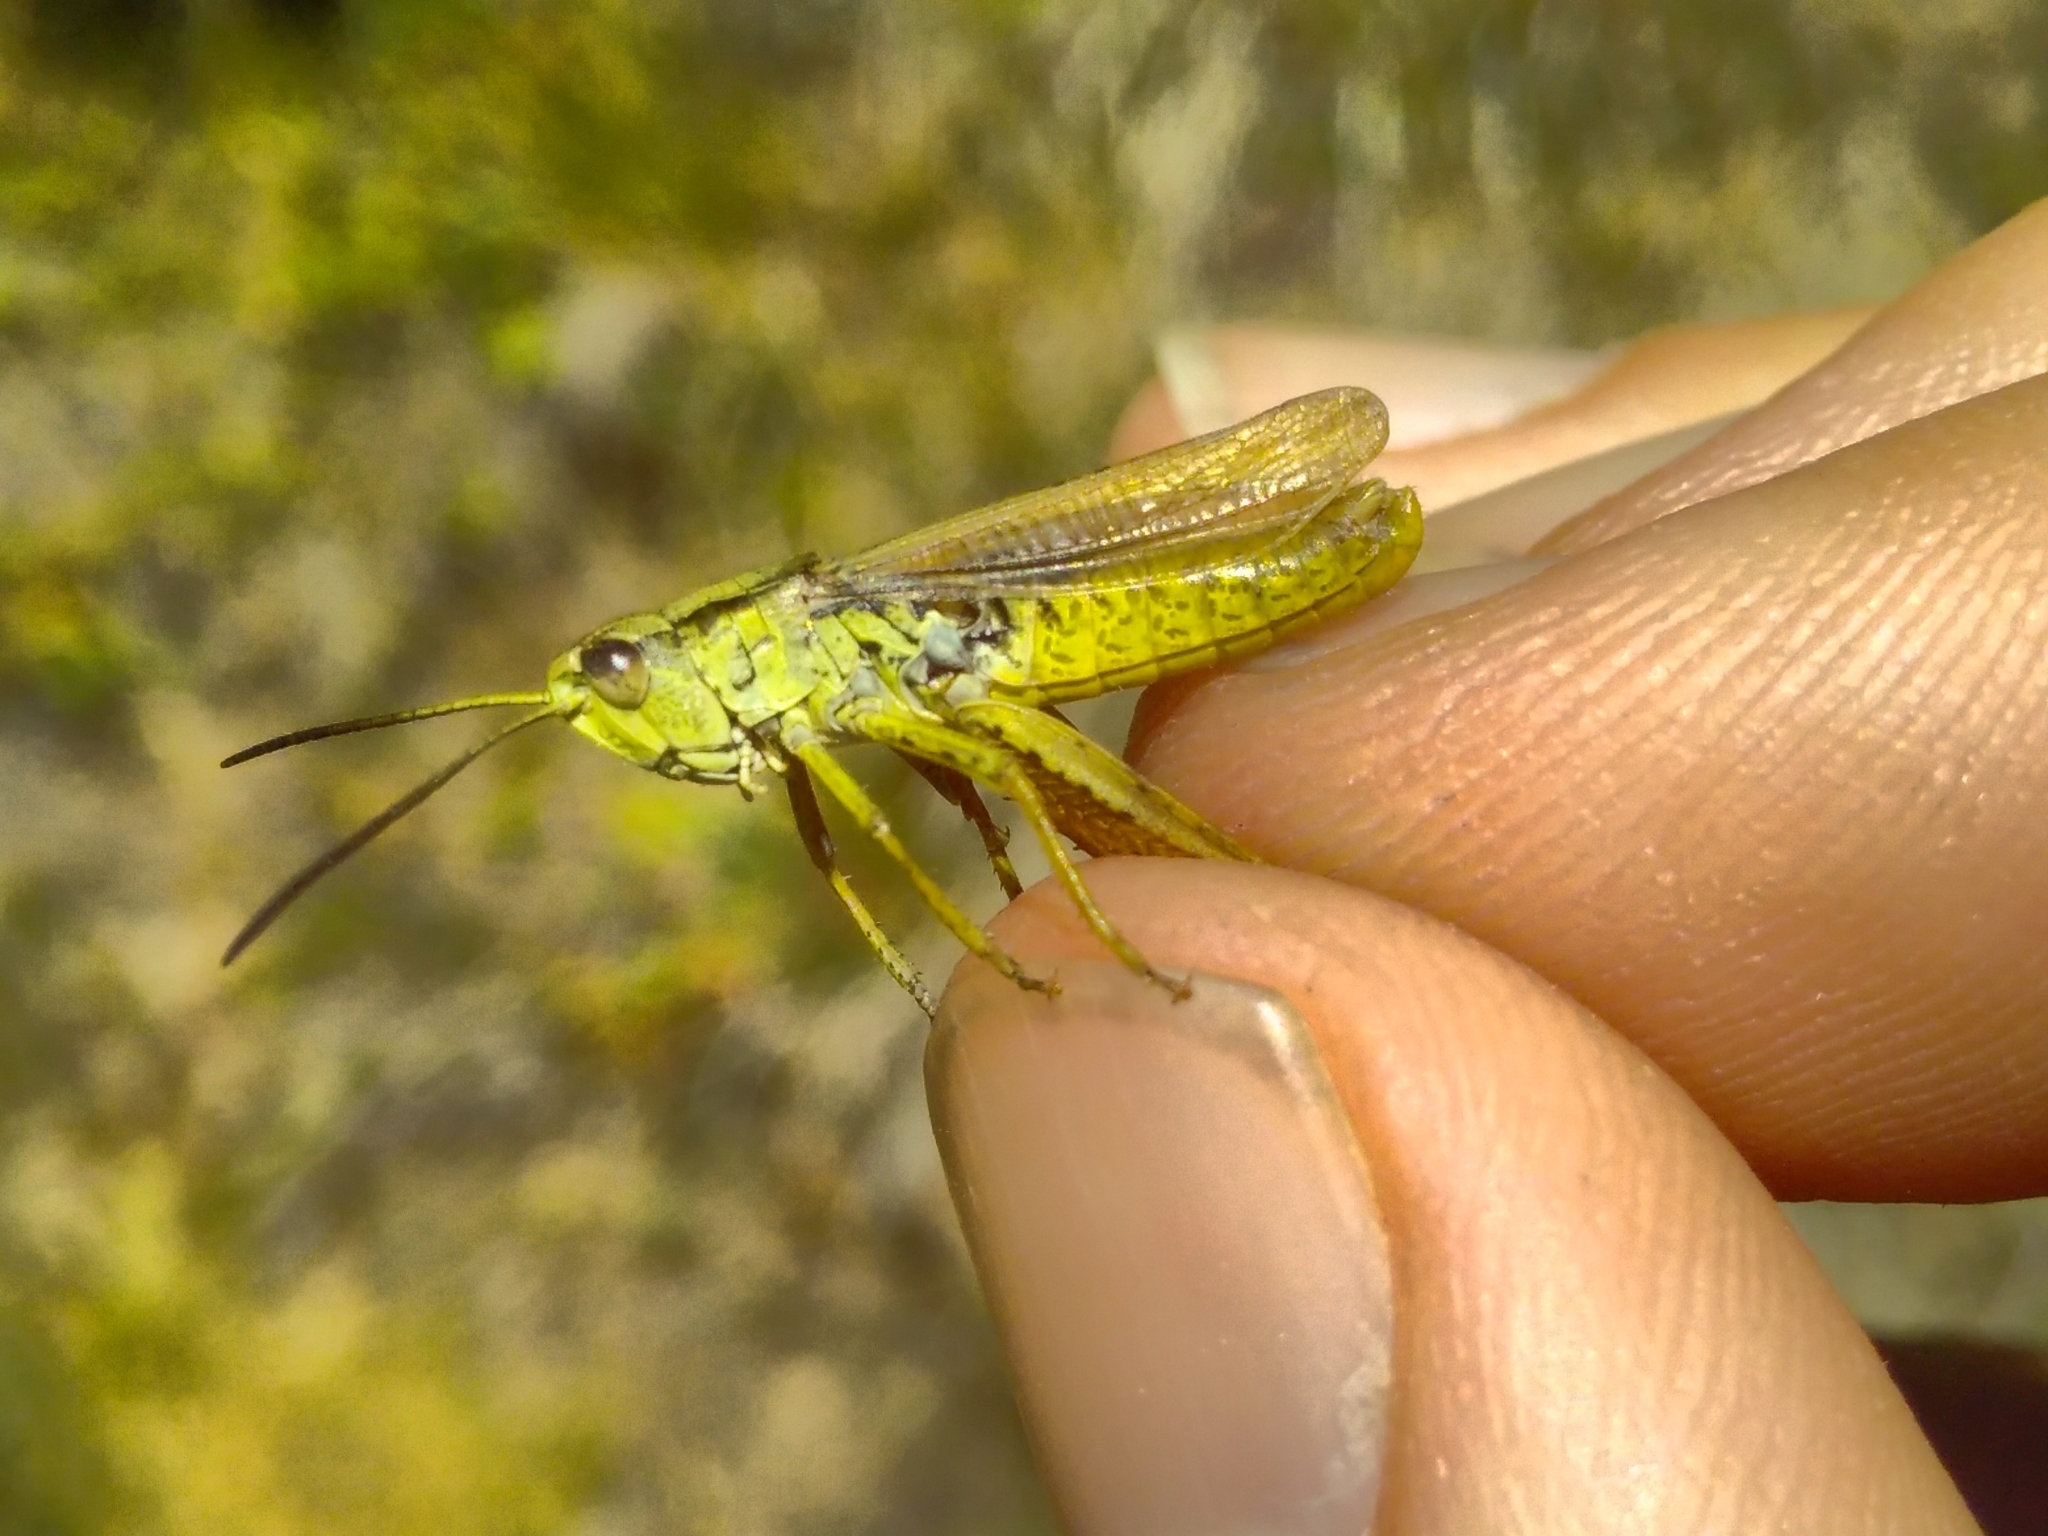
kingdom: Animalia
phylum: Arthropoda
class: Insecta
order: Orthoptera
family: Acrididae
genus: Chorthippus
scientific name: Chorthippus apricarius
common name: Upland field grasshopper
